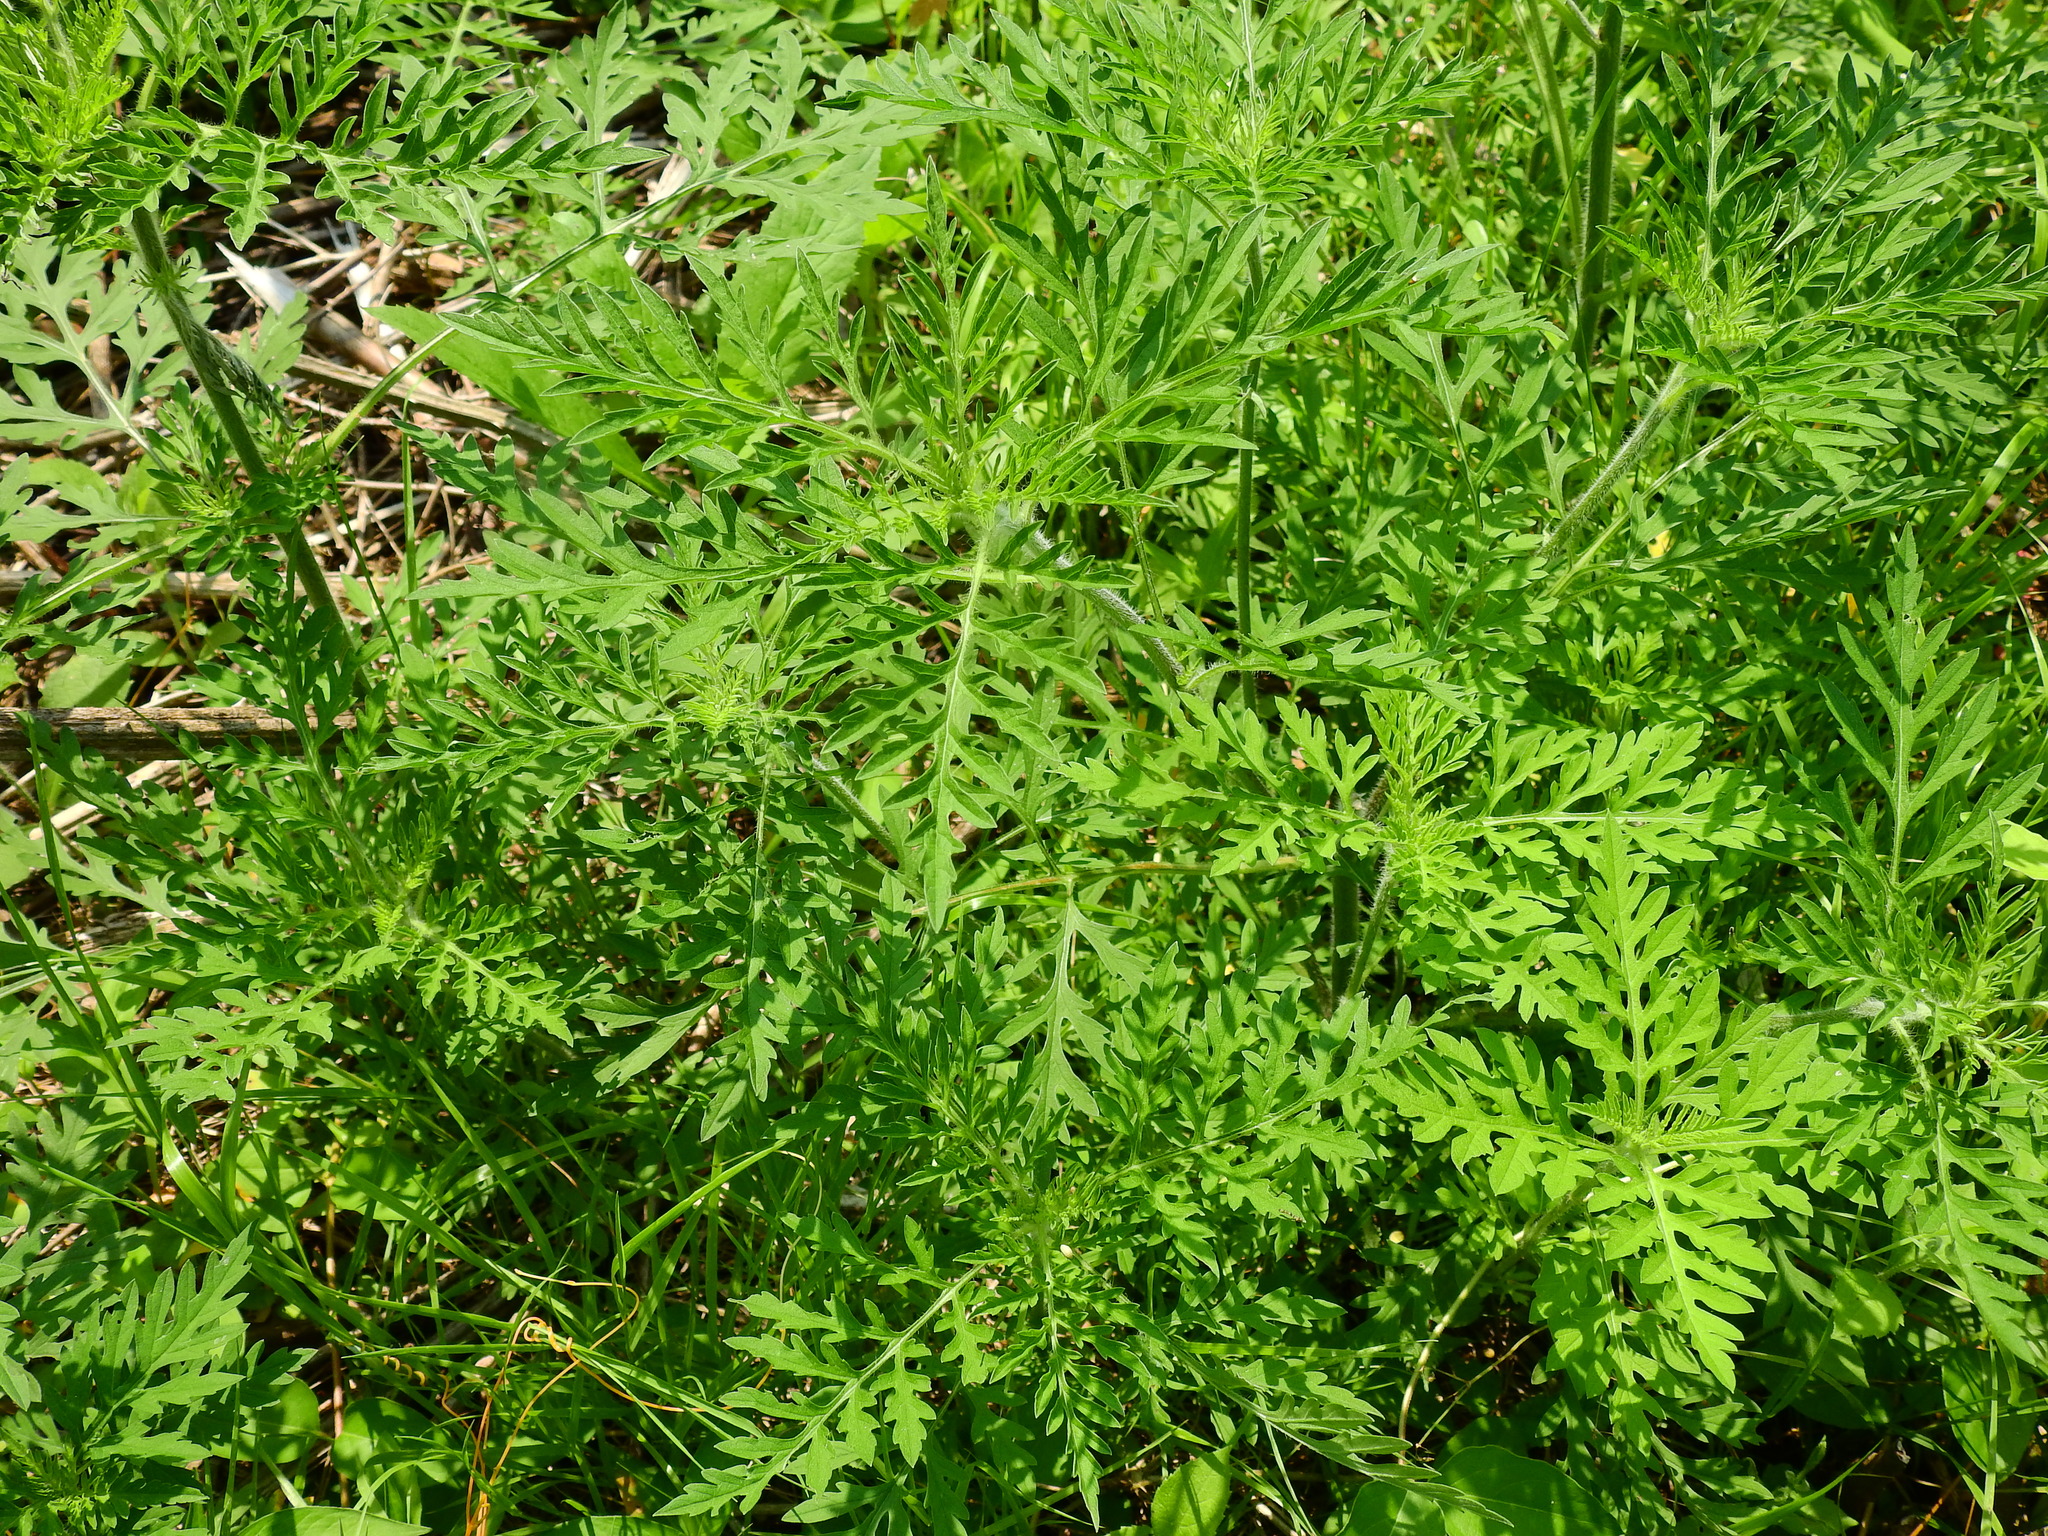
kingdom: Plantae
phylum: Tracheophyta
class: Magnoliopsida
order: Asterales
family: Asteraceae
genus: Ambrosia
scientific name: Ambrosia artemisiifolia
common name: Annual ragweed
